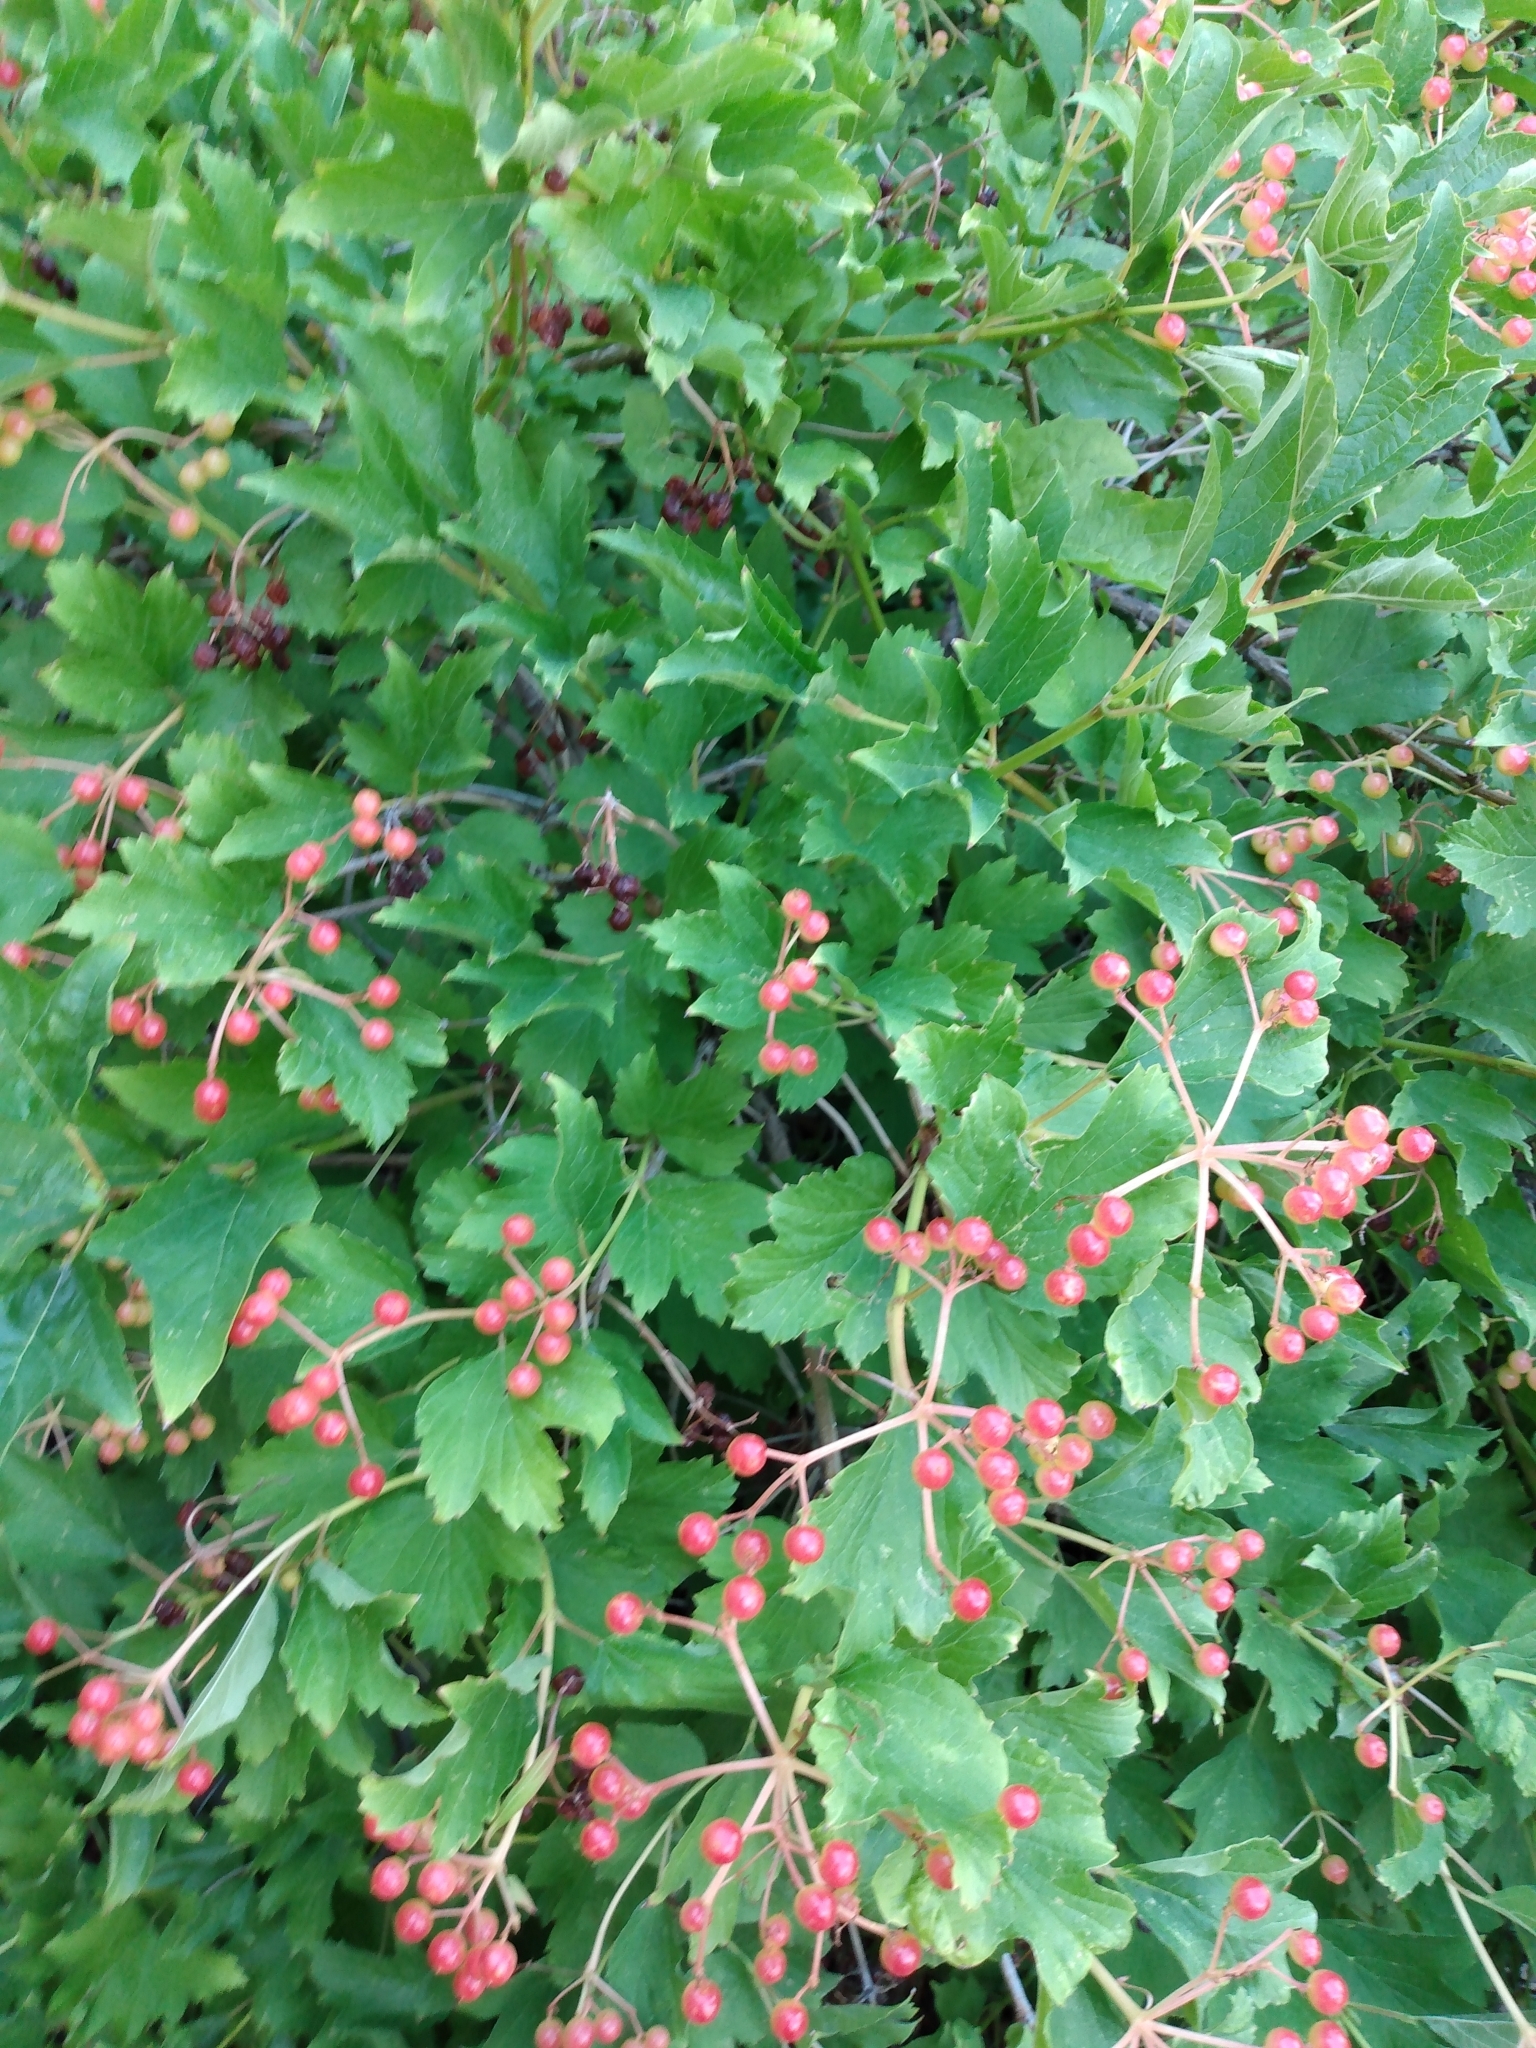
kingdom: Plantae
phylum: Tracheophyta
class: Magnoliopsida
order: Dipsacales
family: Viburnaceae
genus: Viburnum
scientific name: Viburnum opulus
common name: Guelder-rose
